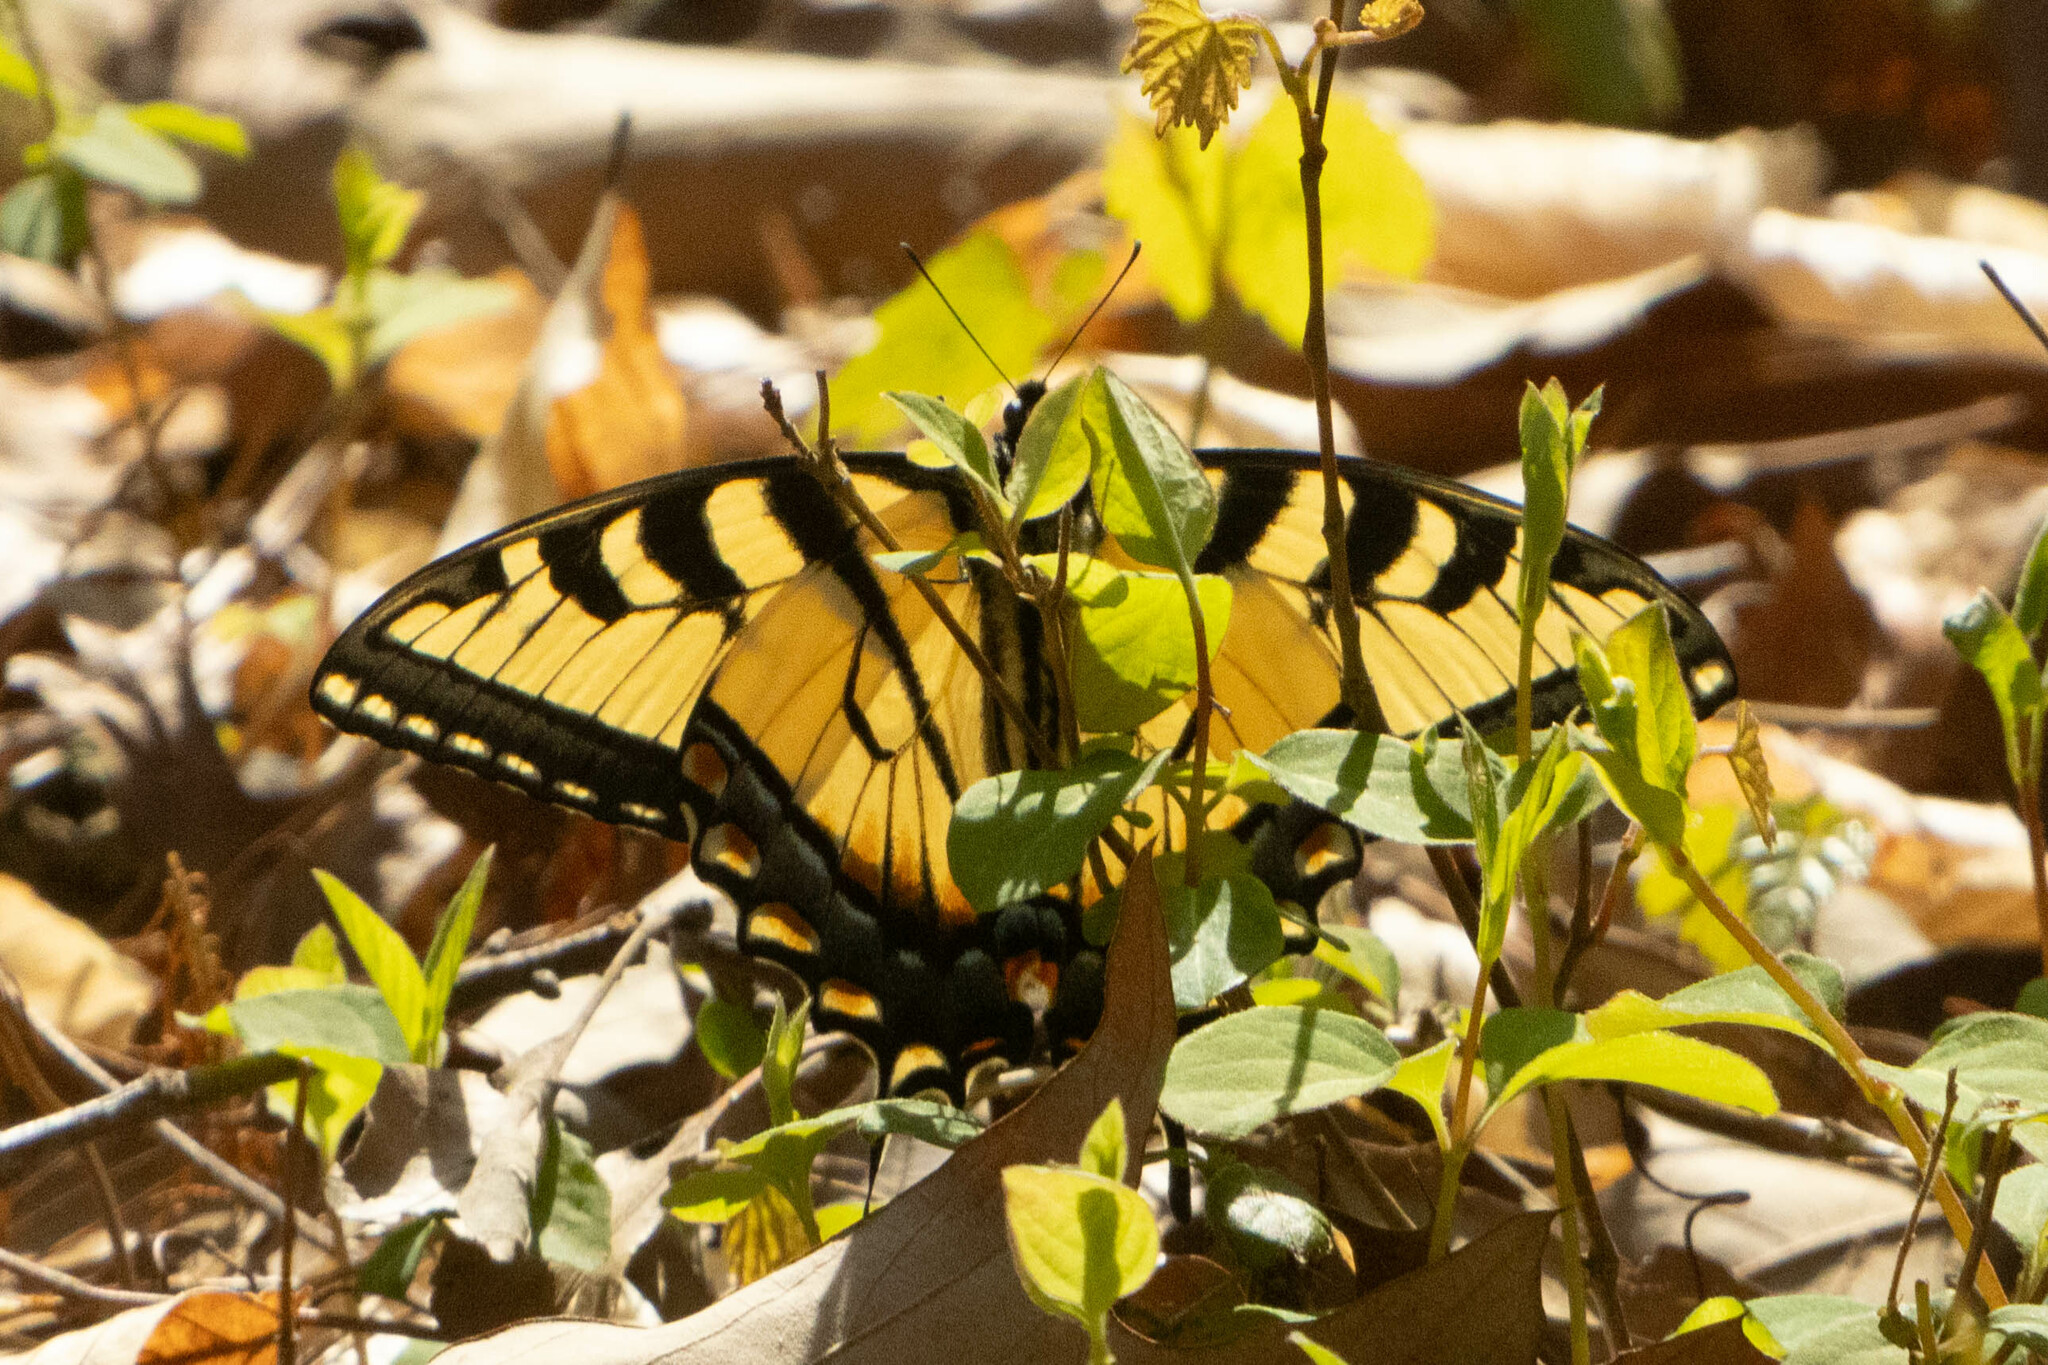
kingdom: Animalia
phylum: Arthropoda
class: Insecta
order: Lepidoptera
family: Papilionidae
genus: Papilio
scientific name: Papilio glaucus
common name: Tiger swallowtail
